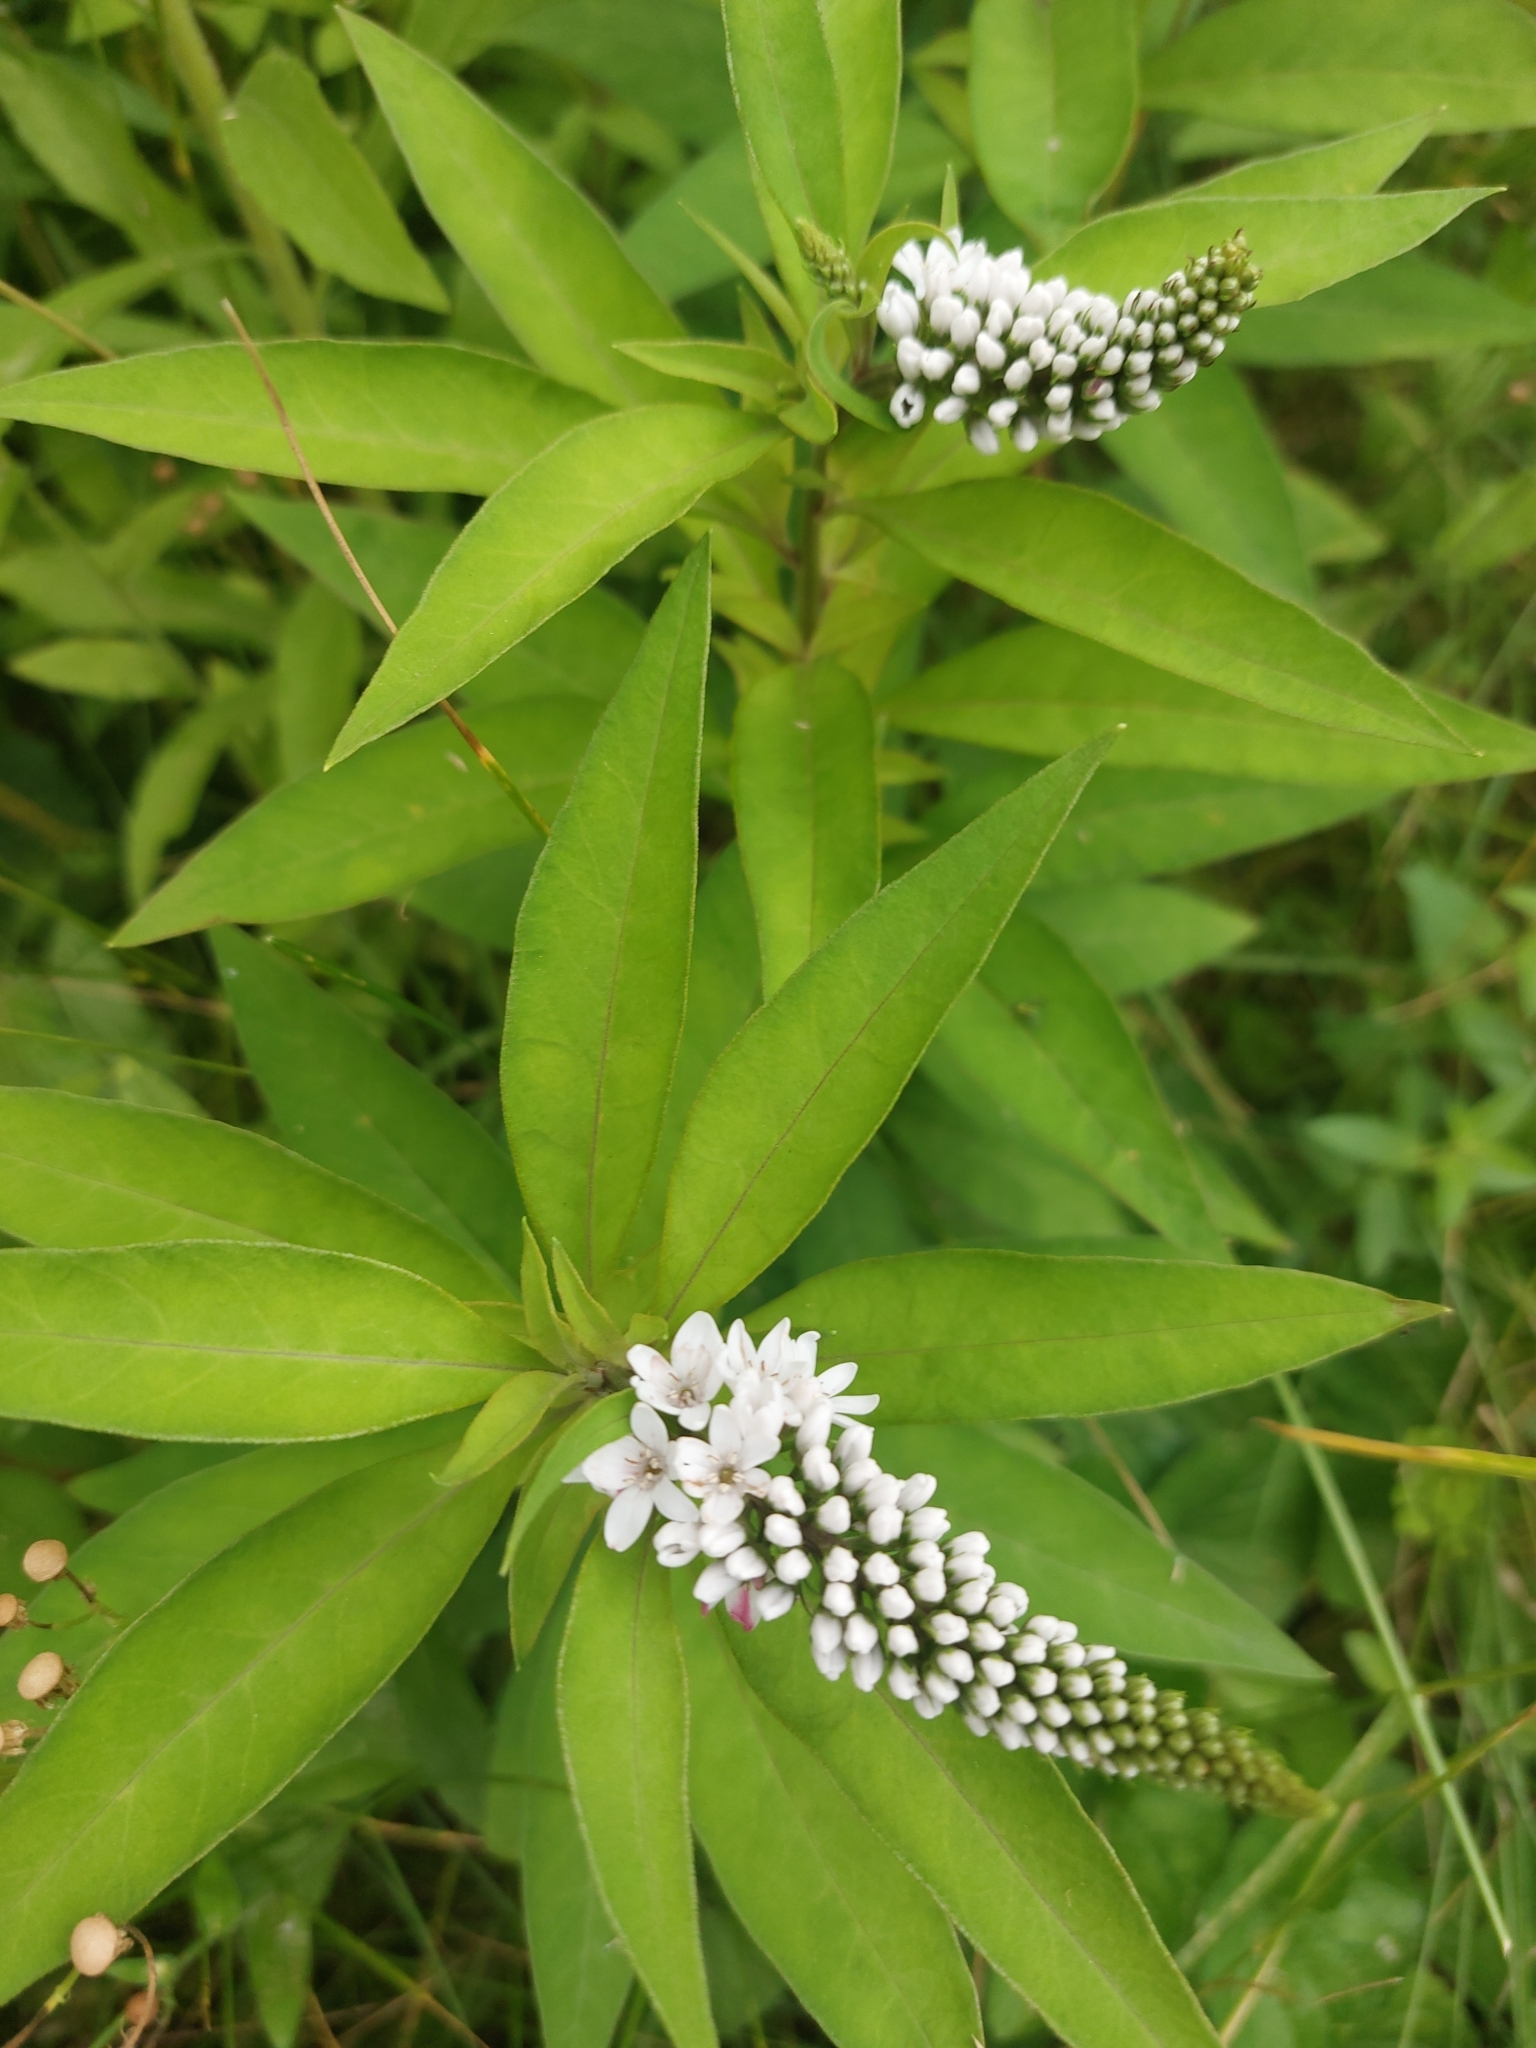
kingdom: Plantae
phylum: Tracheophyta
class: Magnoliopsida
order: Ericales
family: Primulaceae
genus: Lysimachia
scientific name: Lysimachia clethroides
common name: Gooseneck loosestrife
